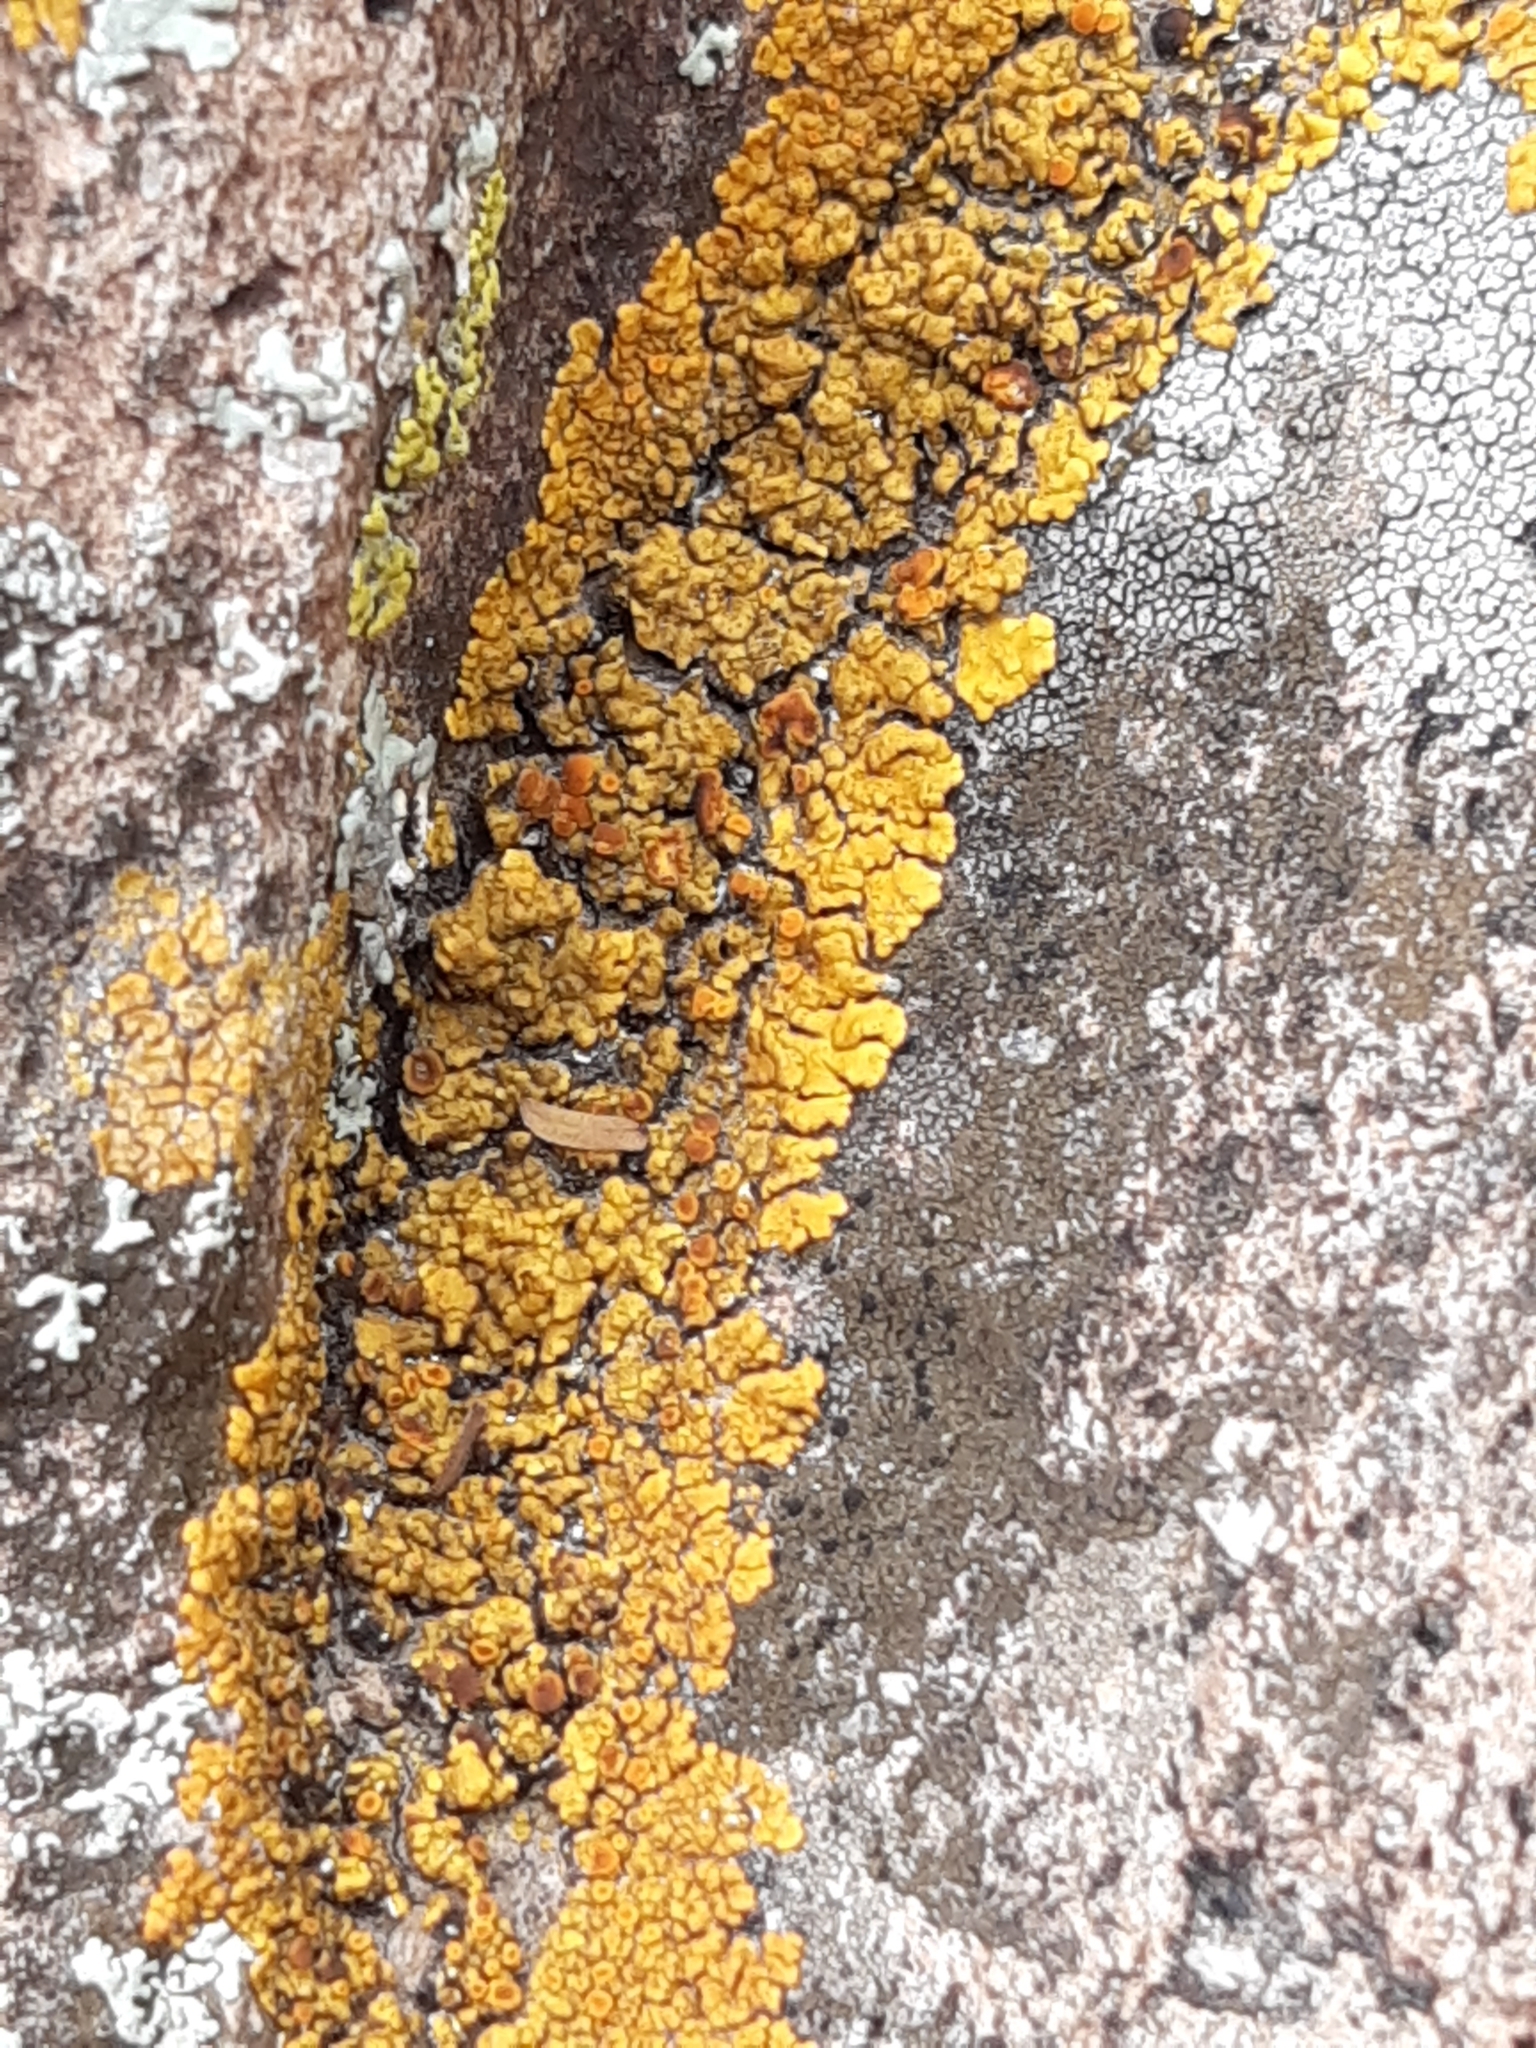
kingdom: Fungi
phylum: Ascomycota
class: Candelariomycetes
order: Candelariales
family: Candelariaceae
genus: Candelina
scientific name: Candelina submexicana
